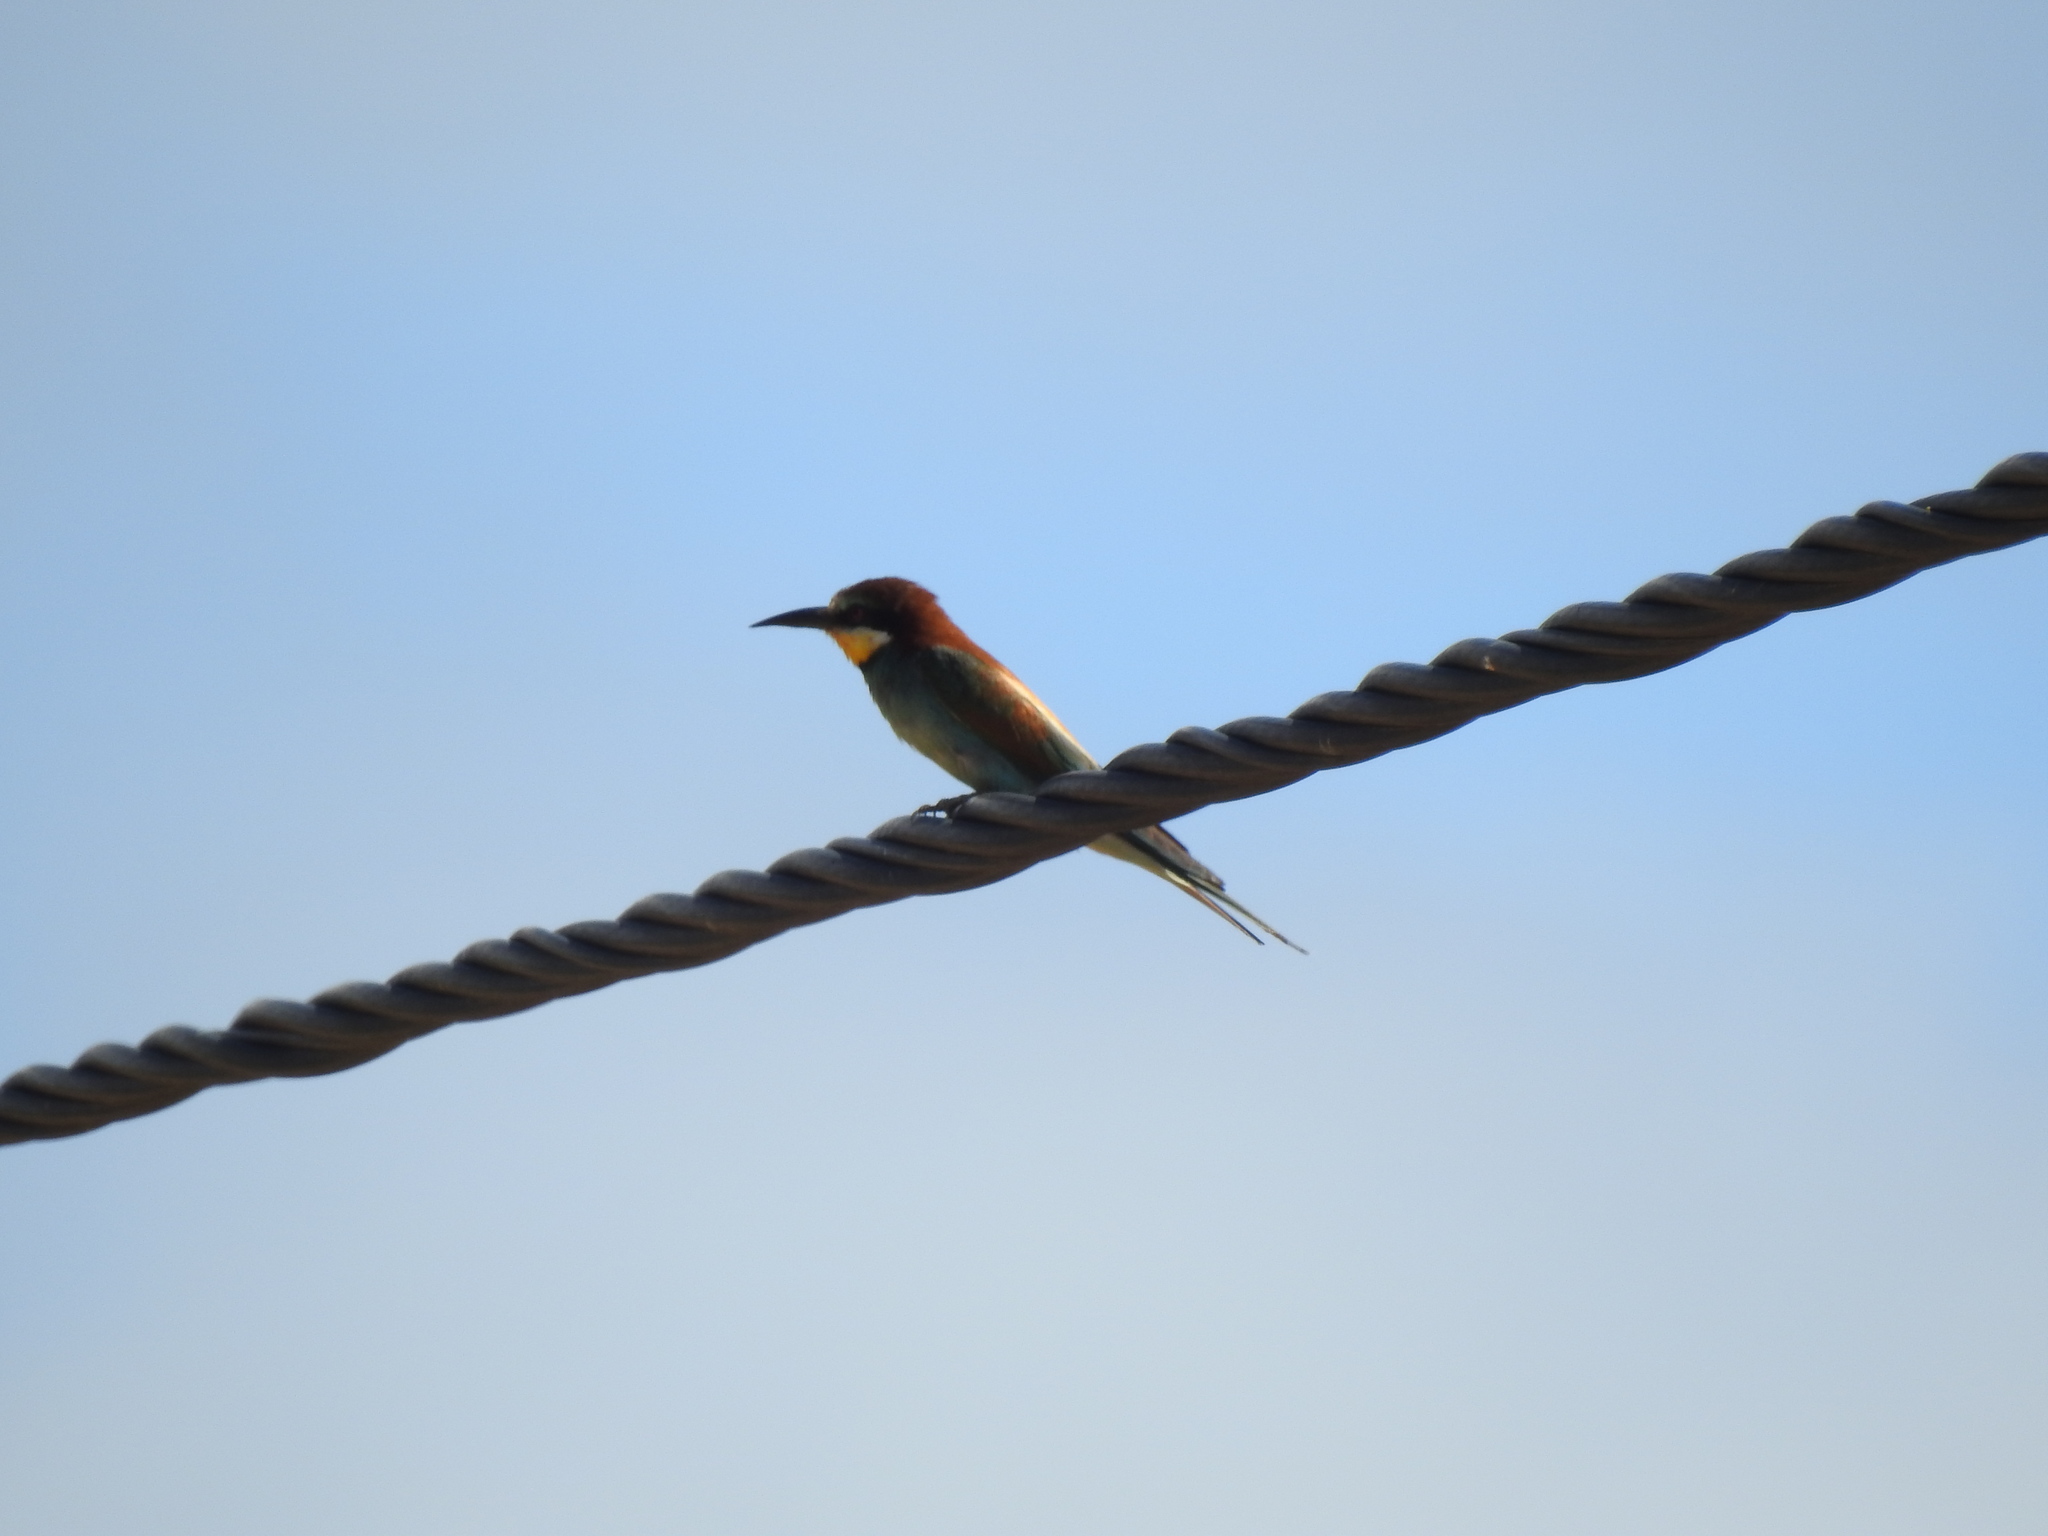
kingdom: Animalia
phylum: Chordata
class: Aves
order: Coraciiformes
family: Meropidae
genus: Merops
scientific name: Merops apiaster
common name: European bee-eater
